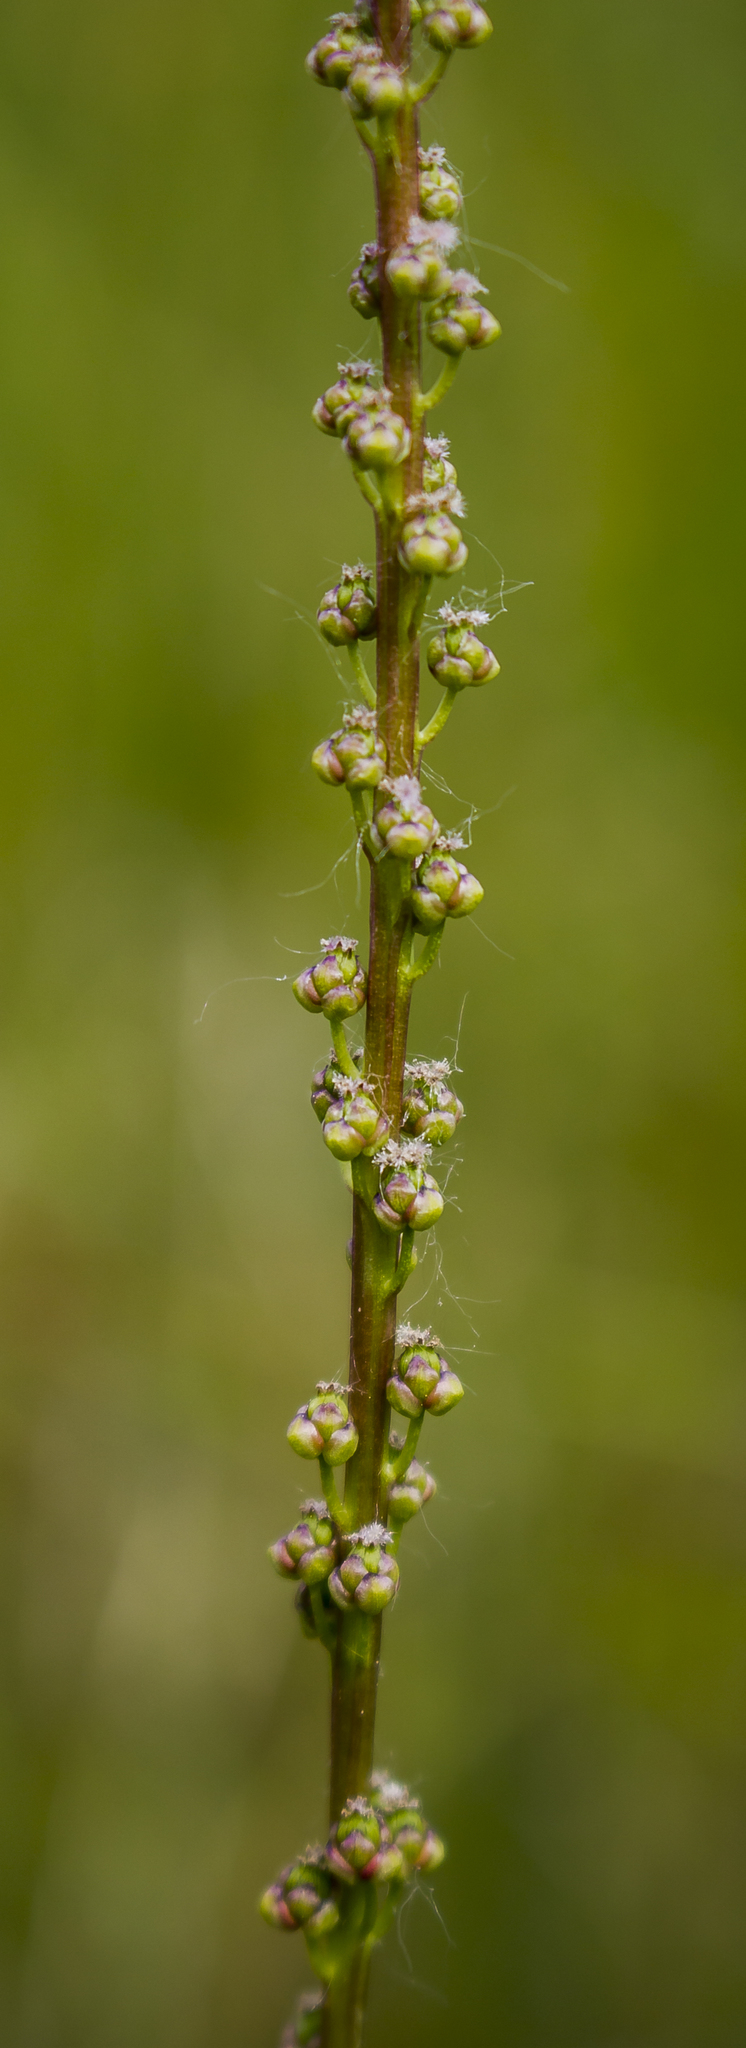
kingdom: Plantae
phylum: Tracheophyta
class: Liliopsida
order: Alismatales
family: Juncaginaceae
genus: Triglochin
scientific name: Triglochin maritima
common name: Sea arrowgrass
